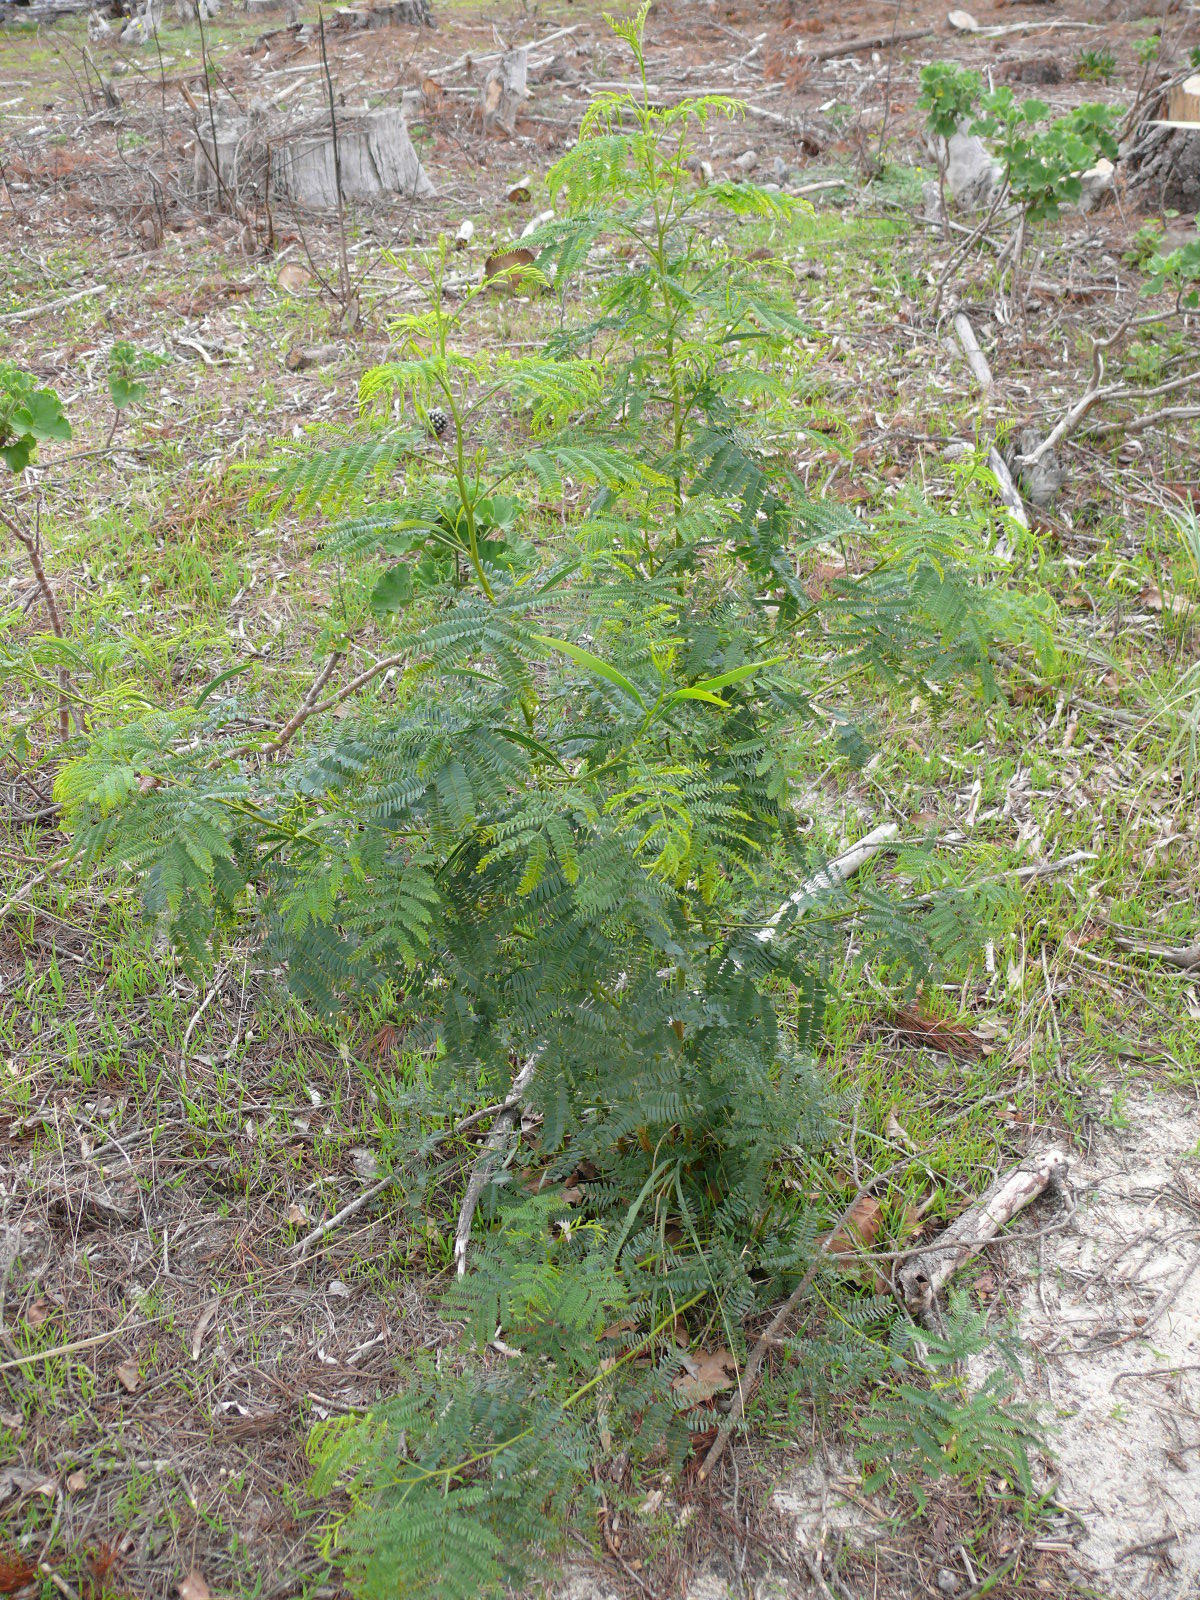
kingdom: Plantae
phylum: Tracheophyta
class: Magnoliopsida
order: Fabales
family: Fabaceae
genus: Acacia
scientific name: Acacia implexa
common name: Black wattle
